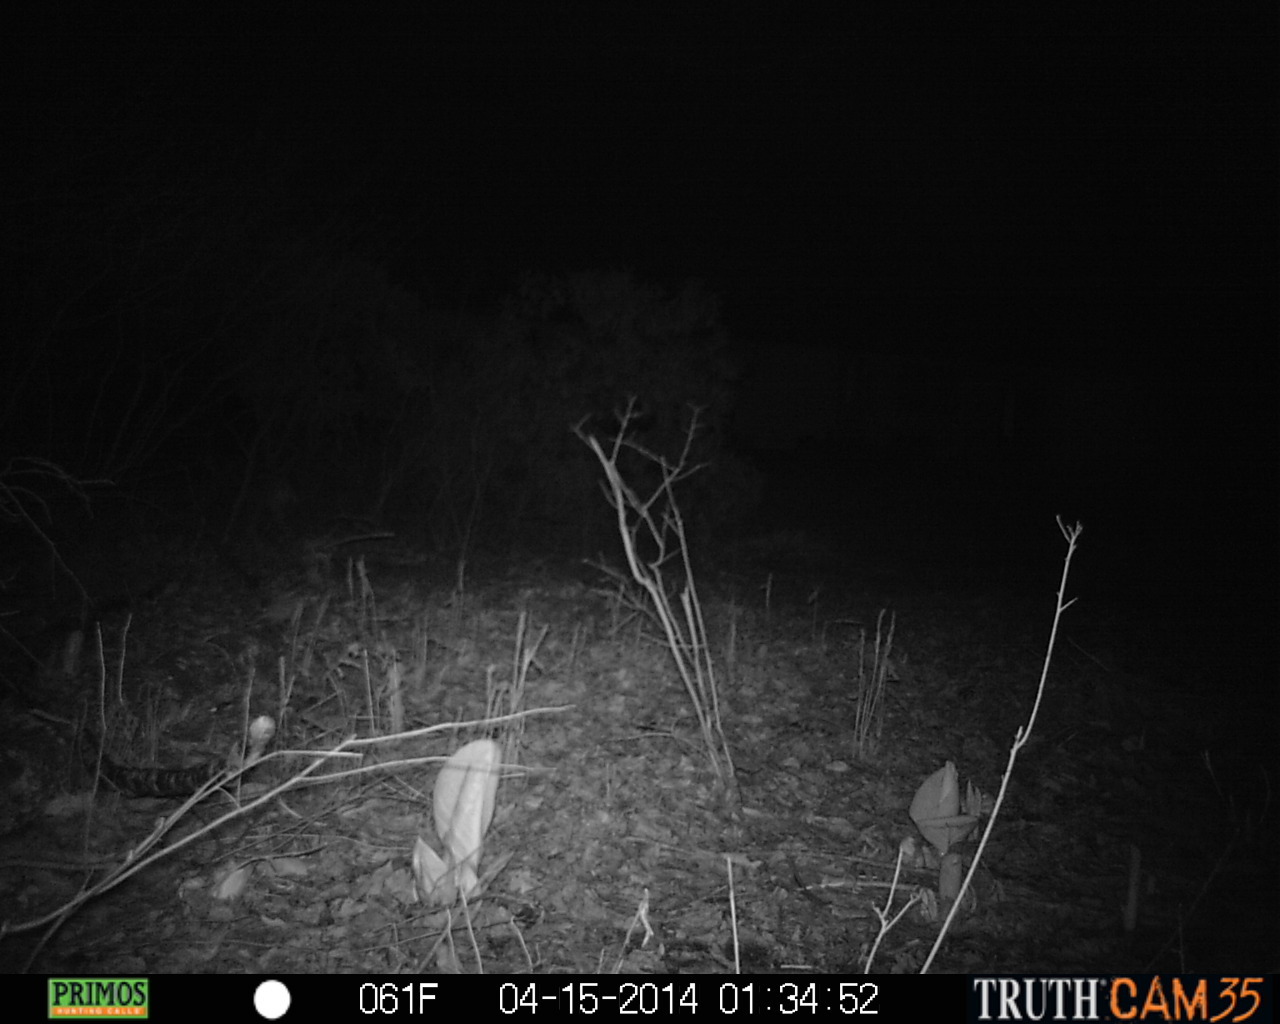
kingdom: Animalia
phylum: Chordata
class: Mammalia
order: Artiodactyla
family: Cervidae
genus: Odocoileus
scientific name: Odocoileus virginianus
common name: White-tailed deer
